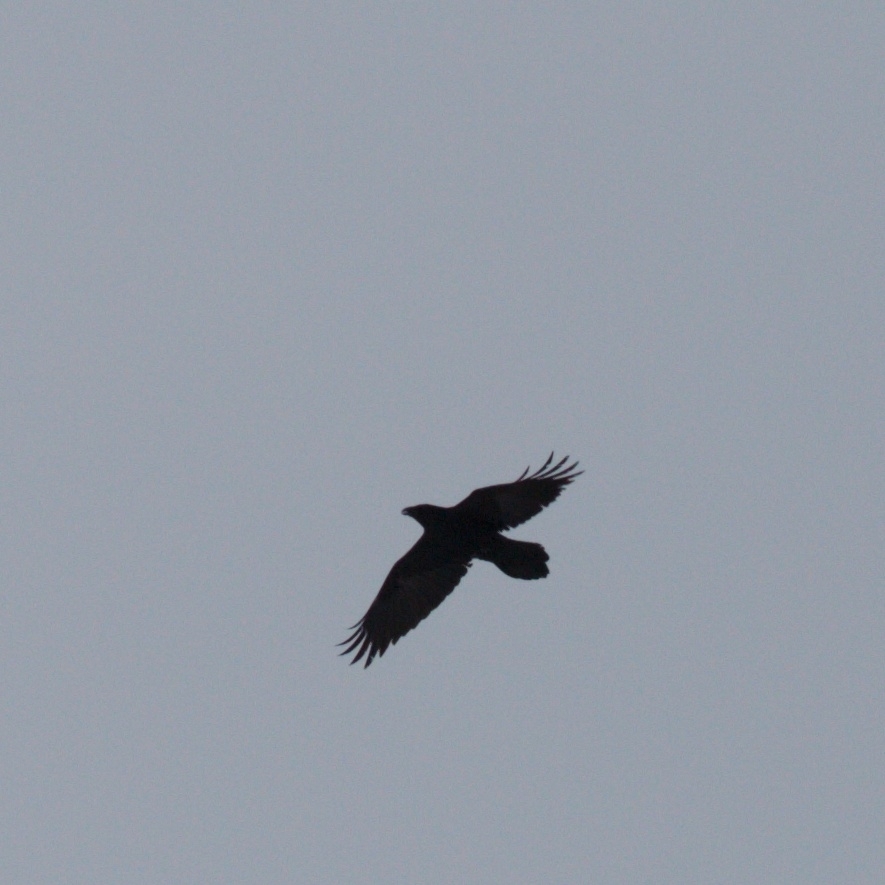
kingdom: Animalia
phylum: Chordata
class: Aves
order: Passeriformes
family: Corvidae
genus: Corvus
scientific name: Corvus corax
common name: Common raven
